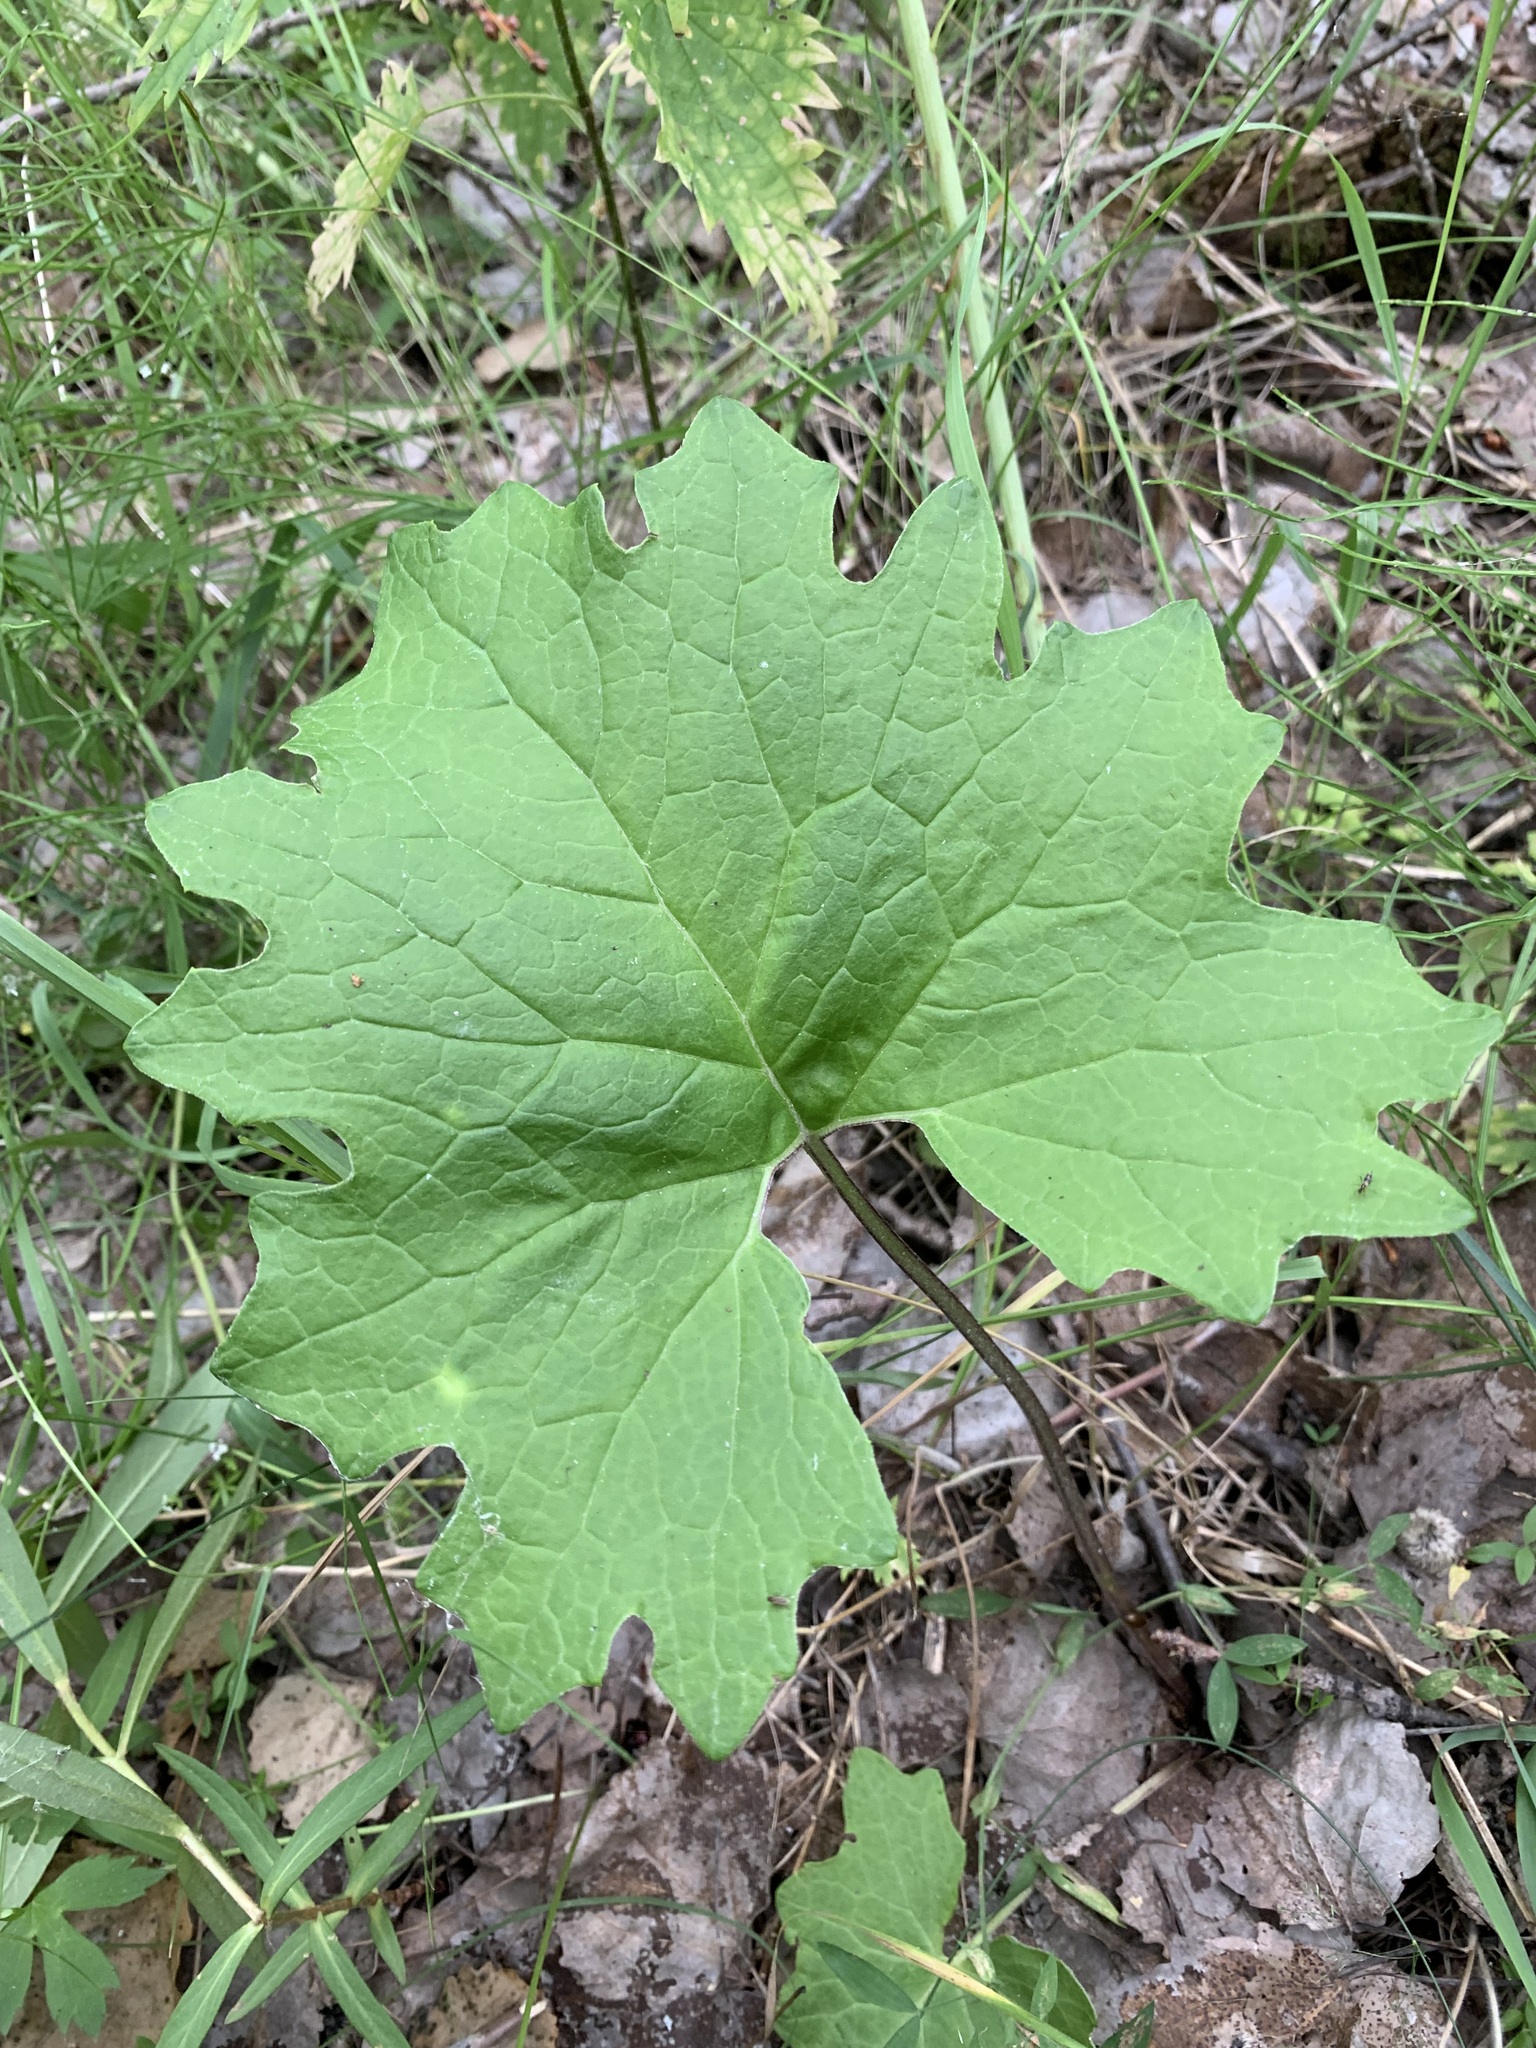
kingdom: Plantae
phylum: Tracheophyta
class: Magnoliopsida
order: Asterales
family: Asteraceae
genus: Petasites
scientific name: Petasites frigidus
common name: Arctic butterbur
